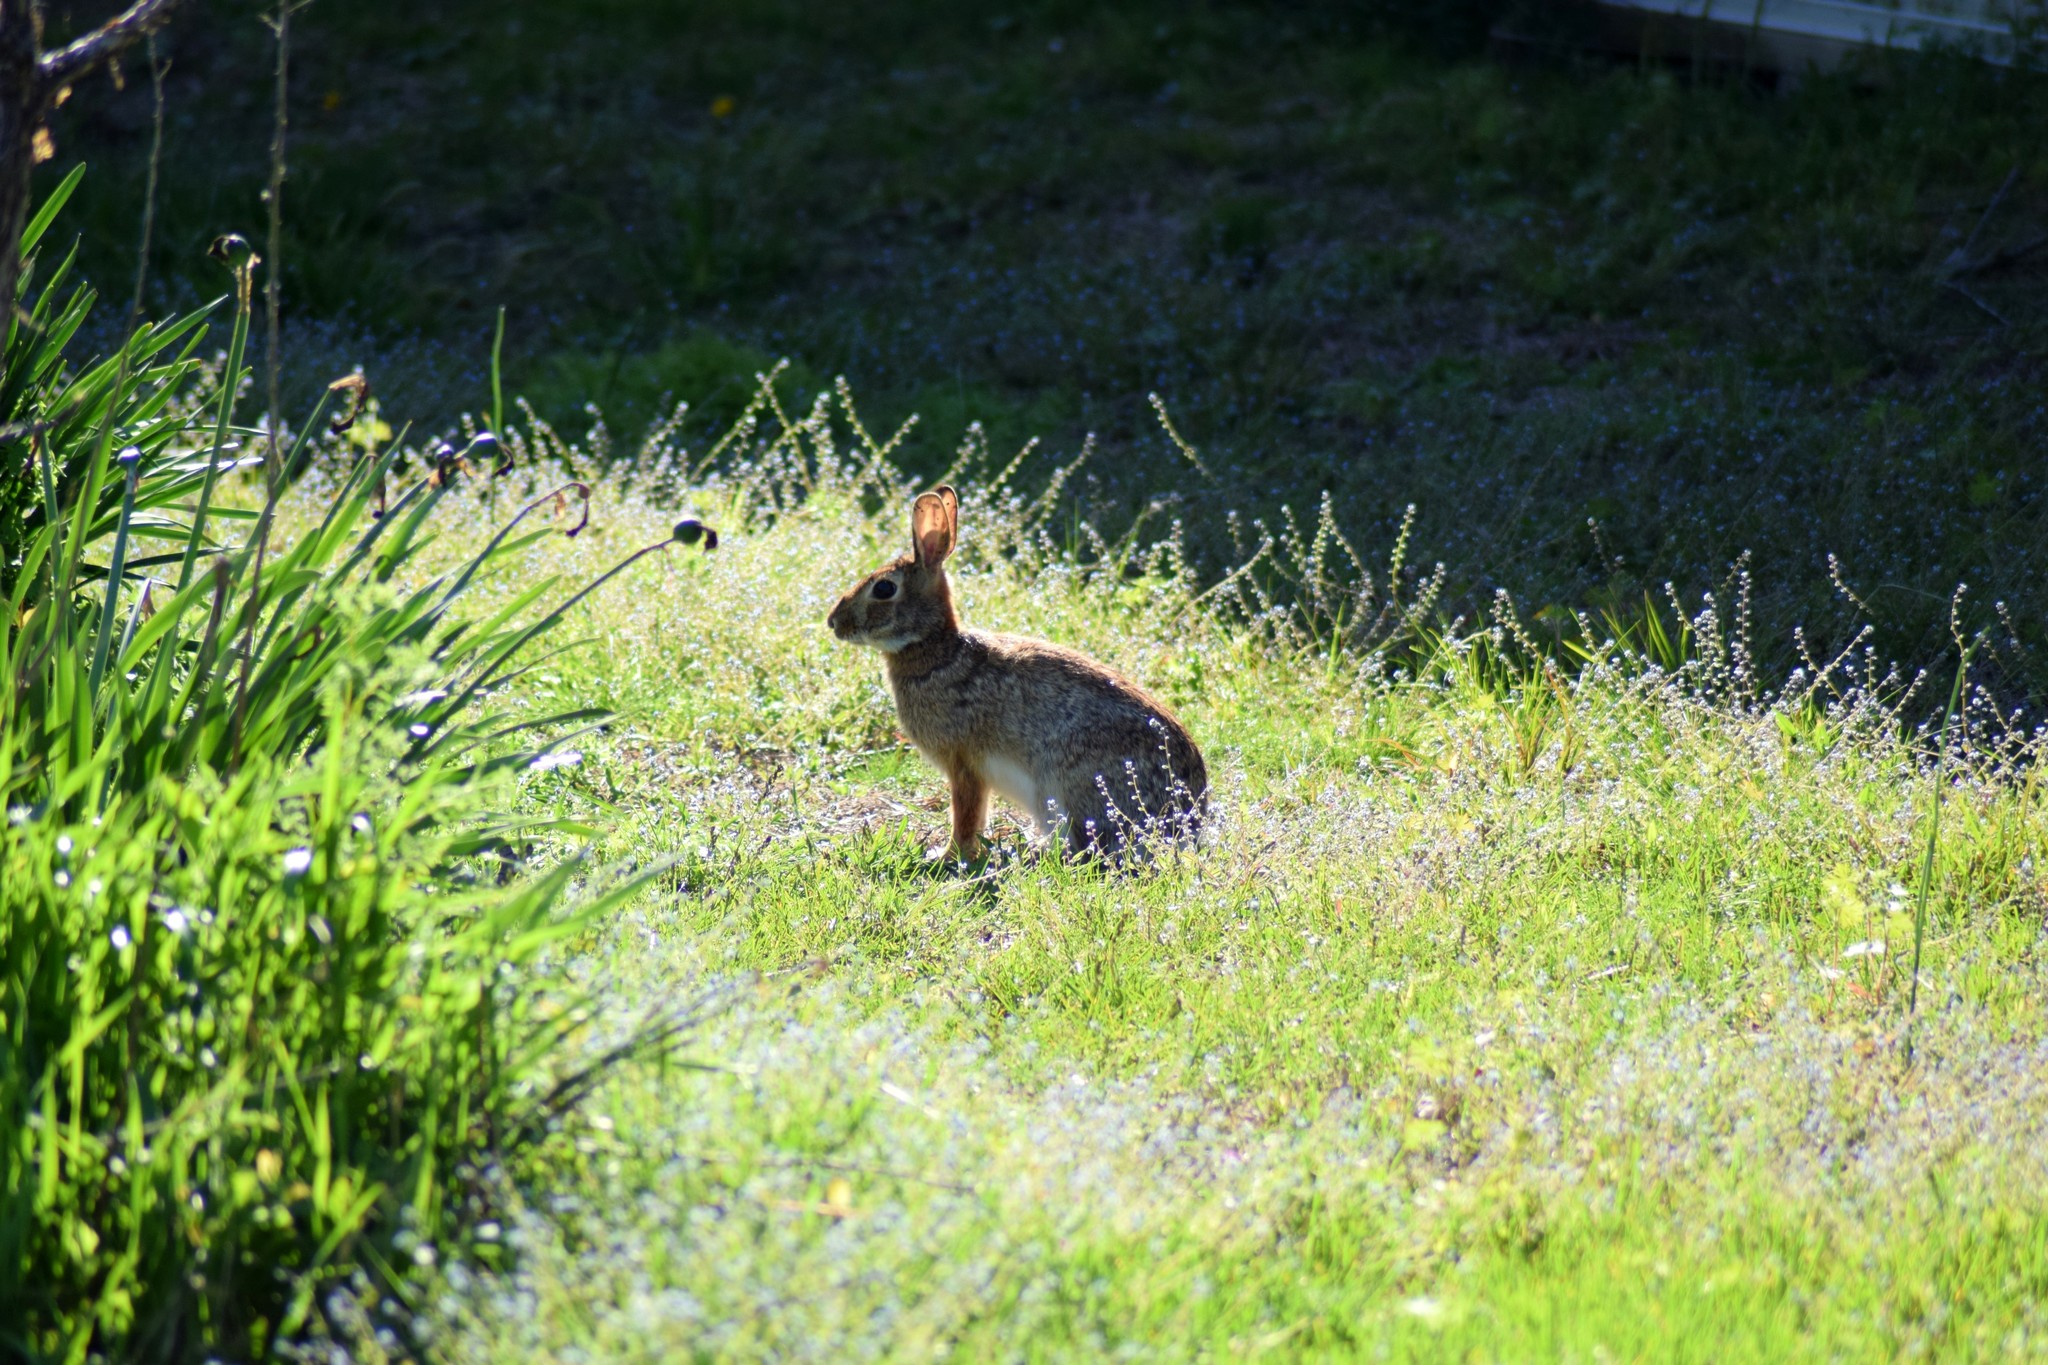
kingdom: Animalia
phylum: Chordata
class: Mammalia
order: Lagomorpha
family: Leporidae
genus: Sylvilagus
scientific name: Sylvilagus floridanus
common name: Eastern cottontail
